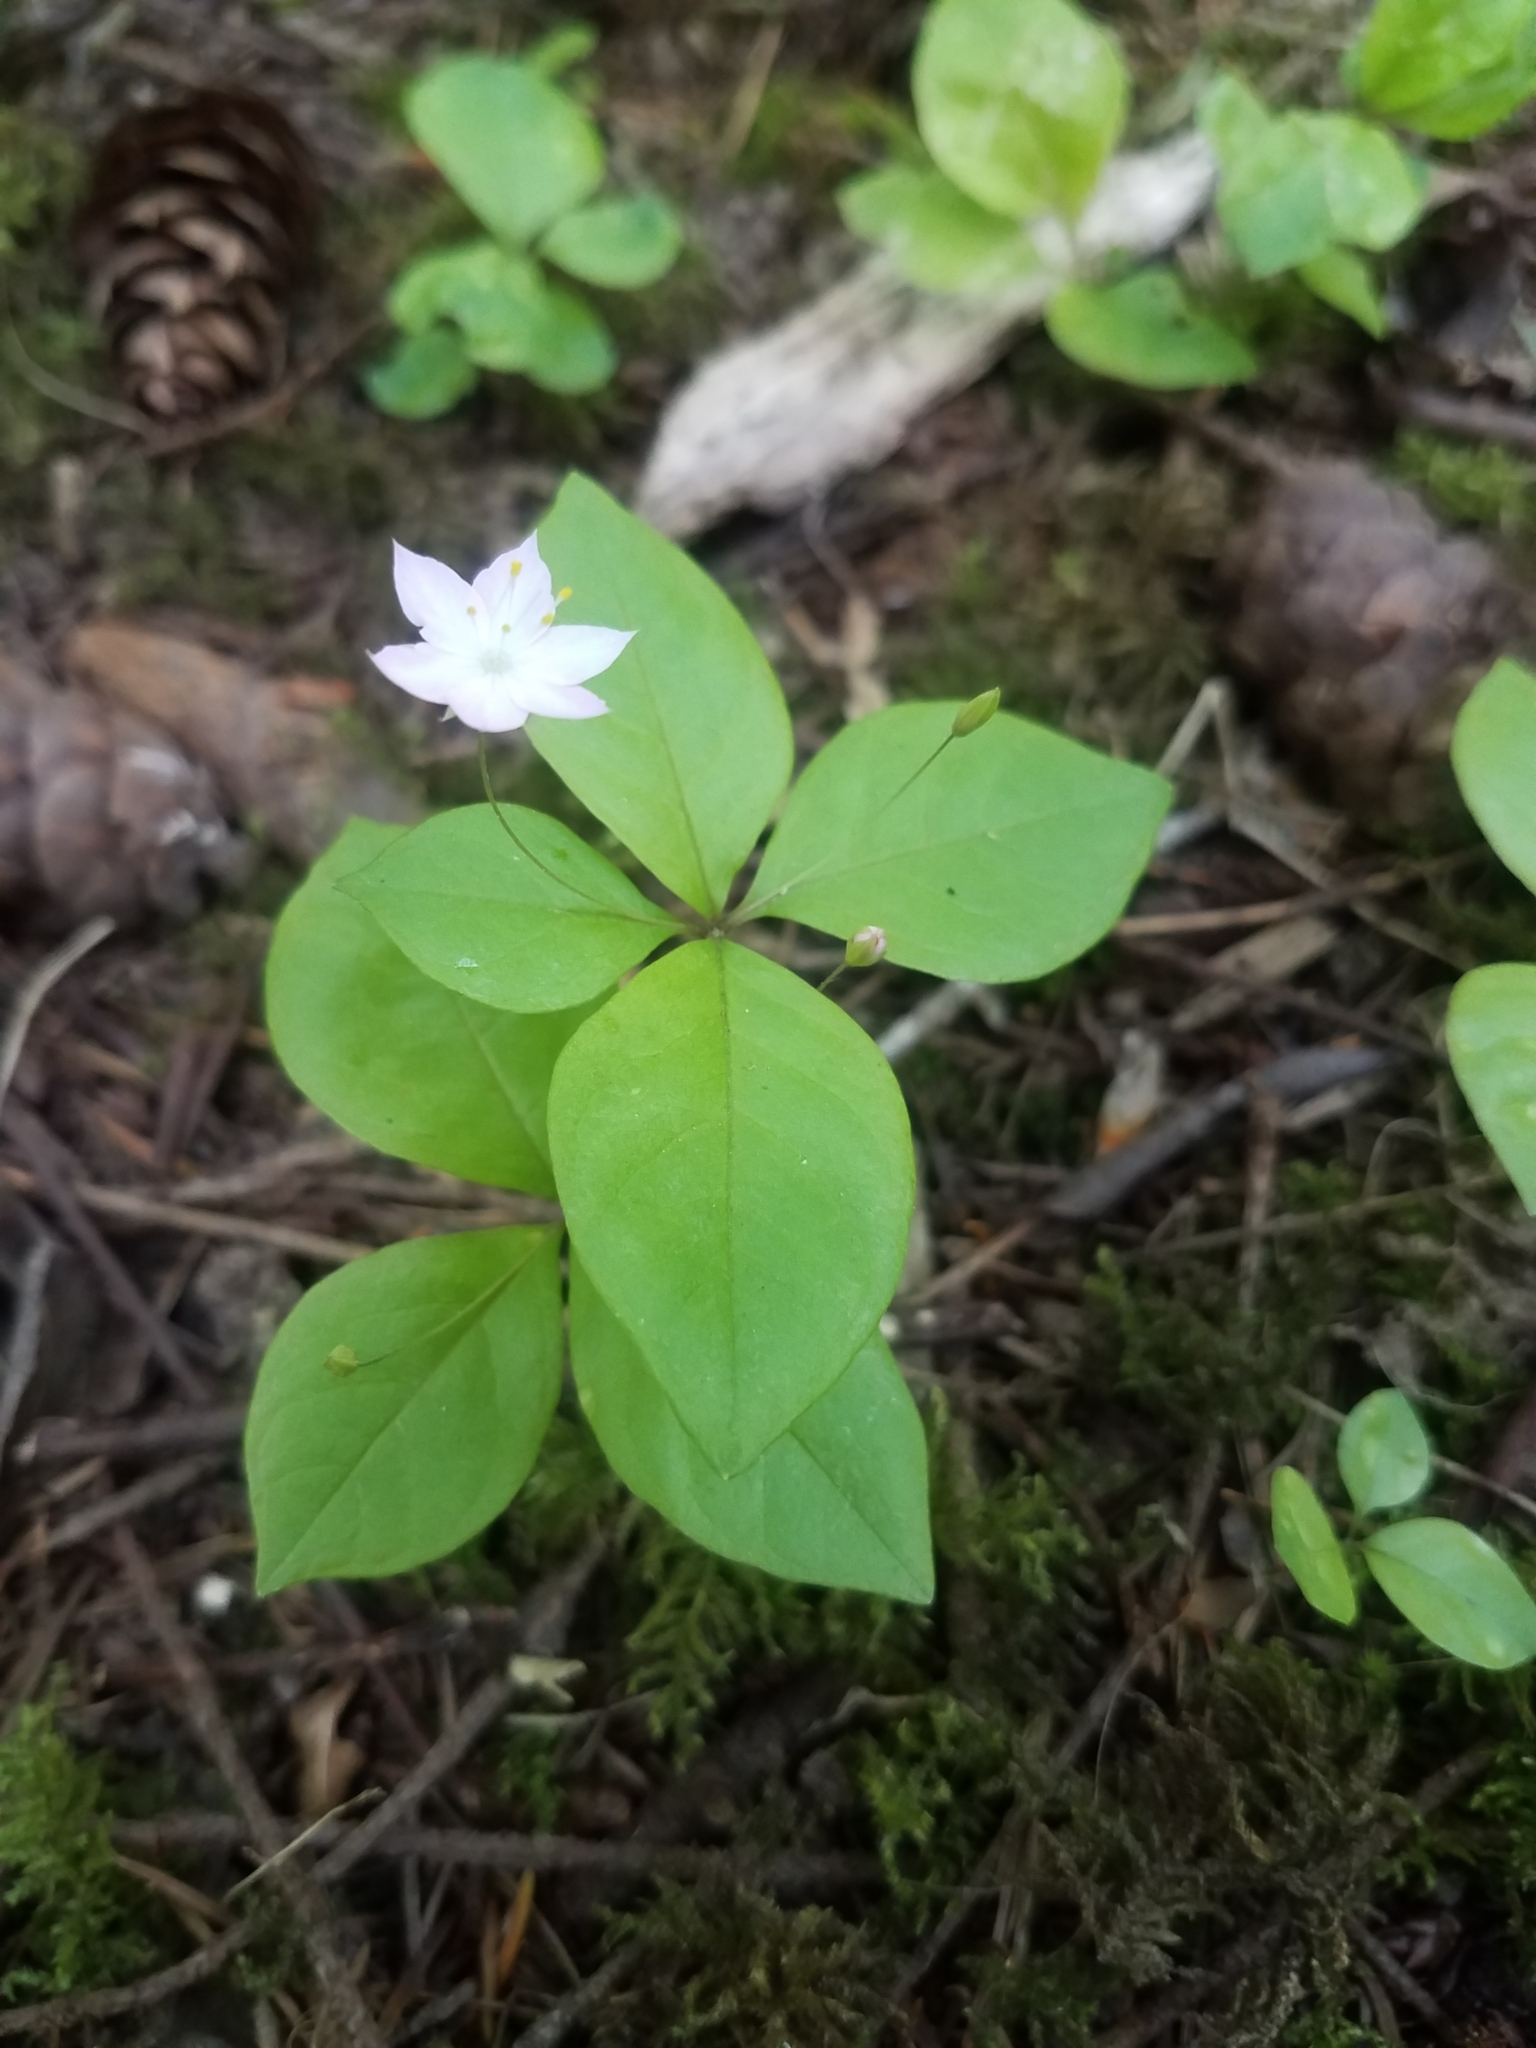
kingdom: Plantae
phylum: Tracheophyta
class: Magnoliopsida
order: Ericales
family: Primulaceae
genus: Lysimachia
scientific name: Lysimachia latifolia
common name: Pacific starflower
